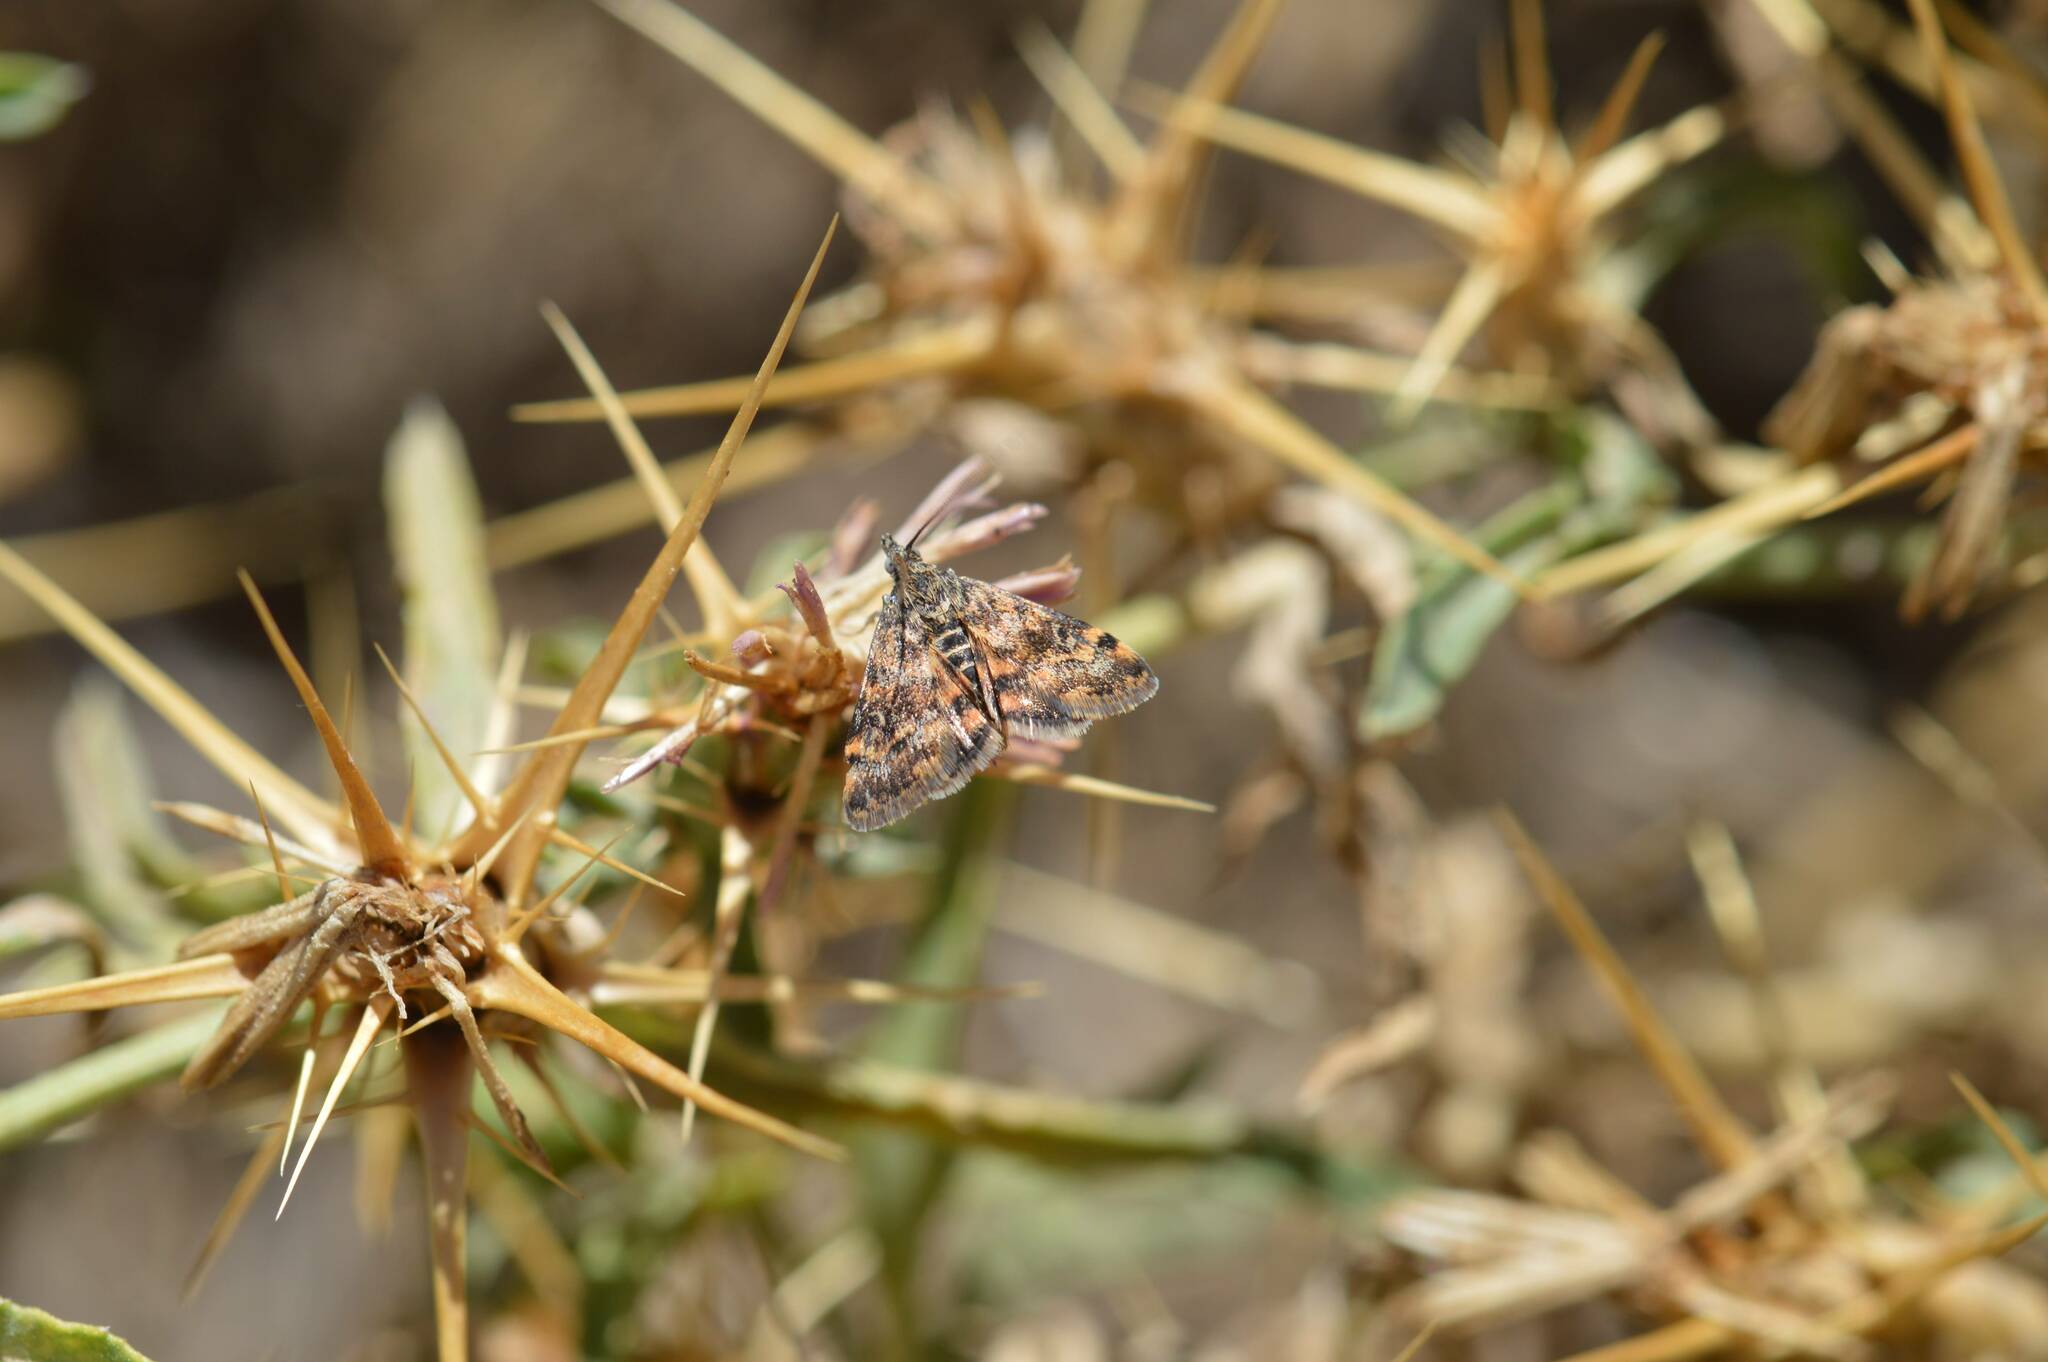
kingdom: Animalia
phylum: Arthropoda
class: Insecta
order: Lepidoptera
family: Crambidae
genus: Noctuelia
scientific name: Noctuelia Aporodes floralis
